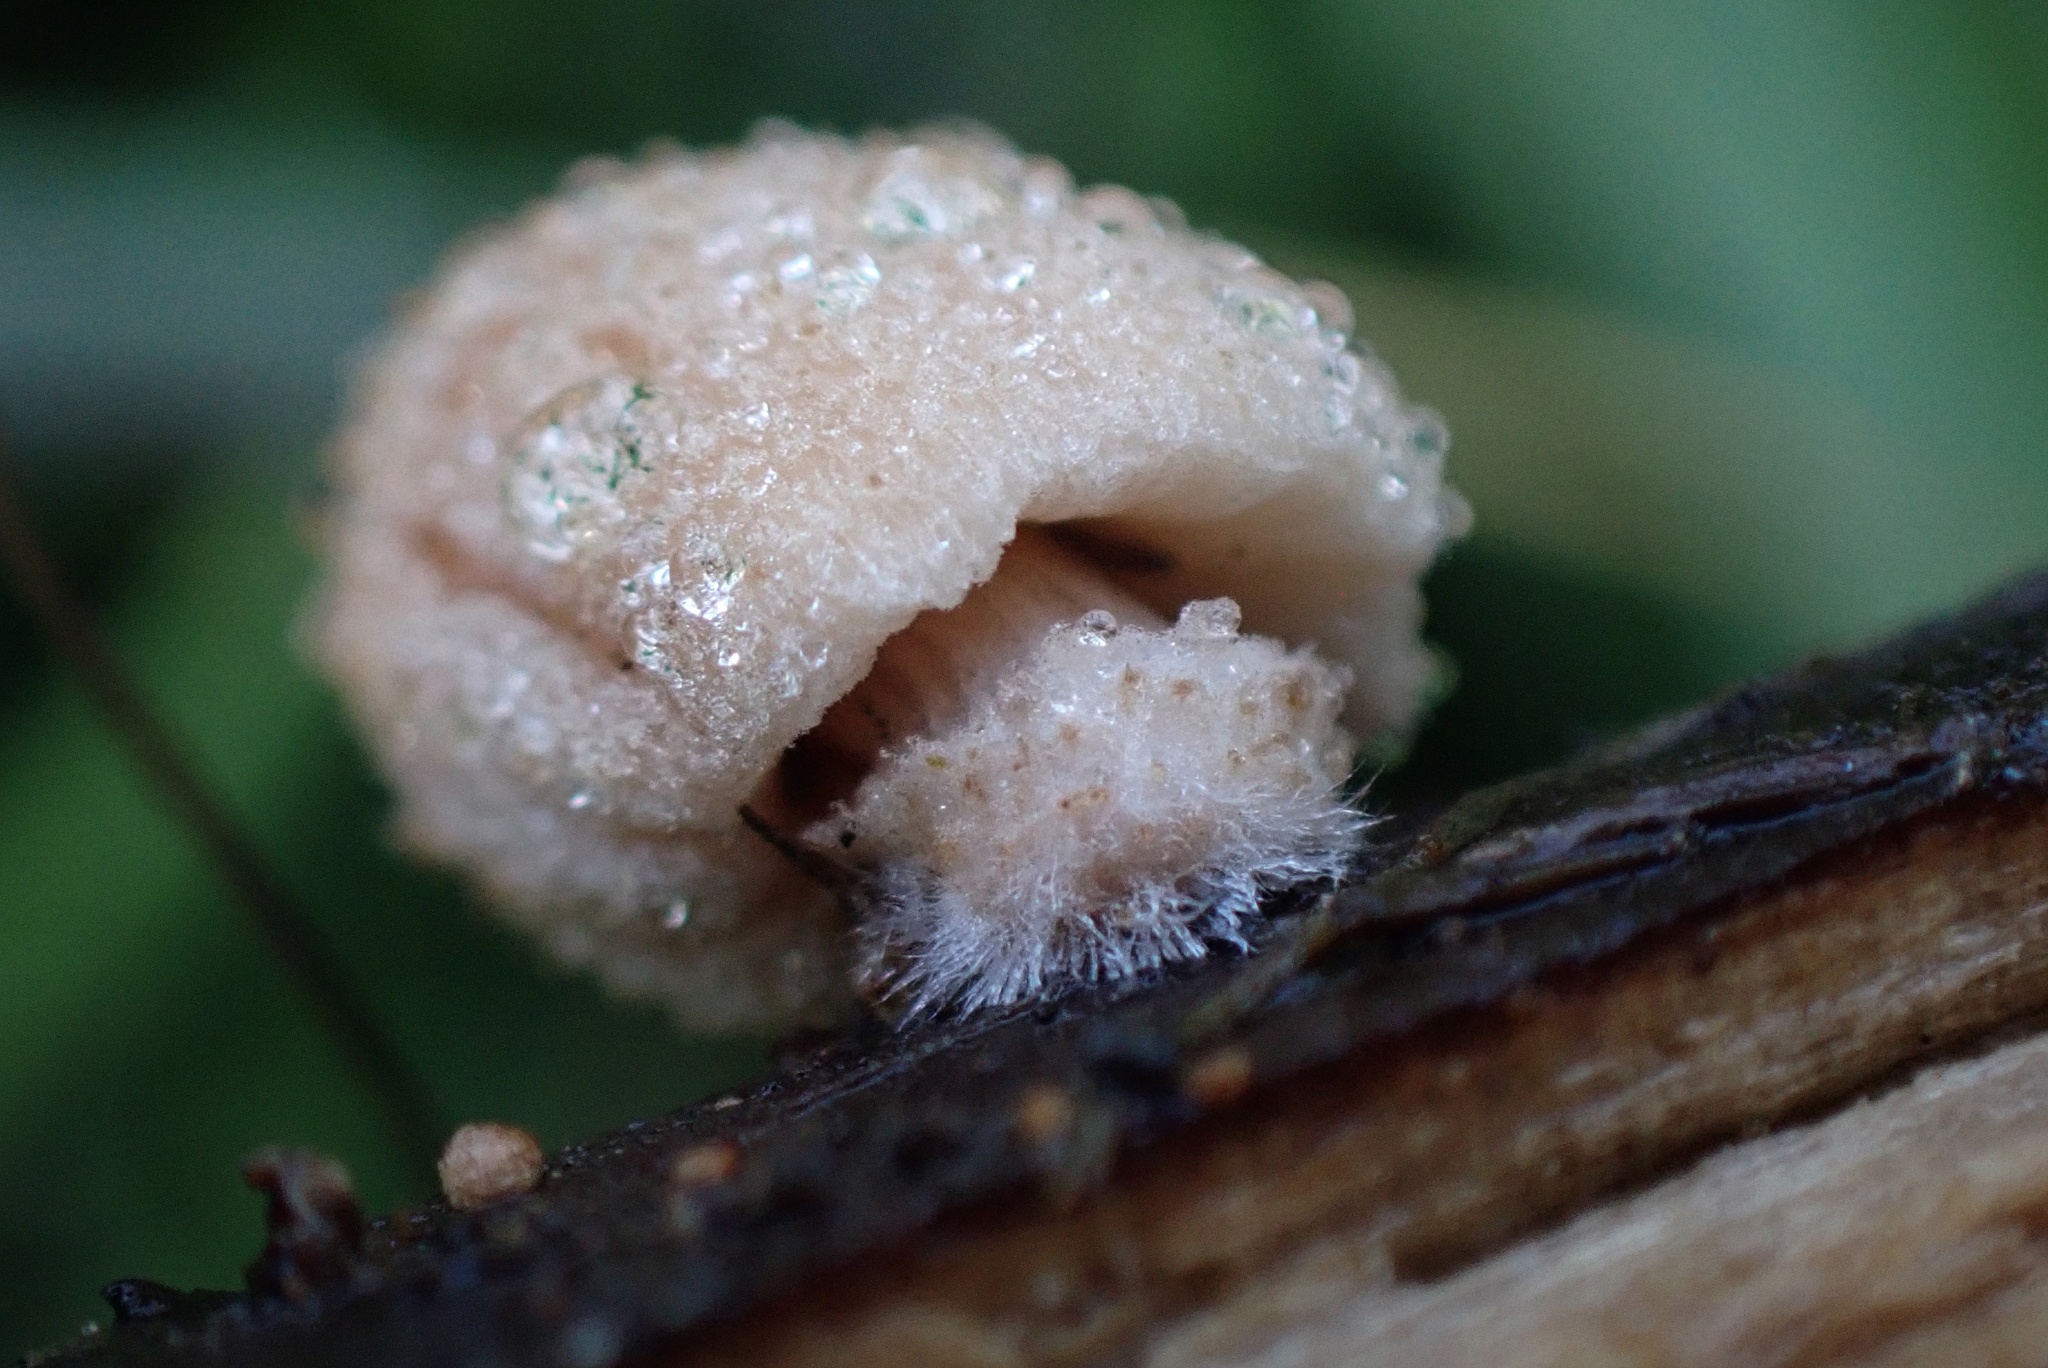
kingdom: Fungi
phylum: Basidiomycota
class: Agaricomycetes
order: Agaricales
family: Psathyrellaceae
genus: Coprinellus
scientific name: Coprinellus domesticus
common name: Firerug inkcap
